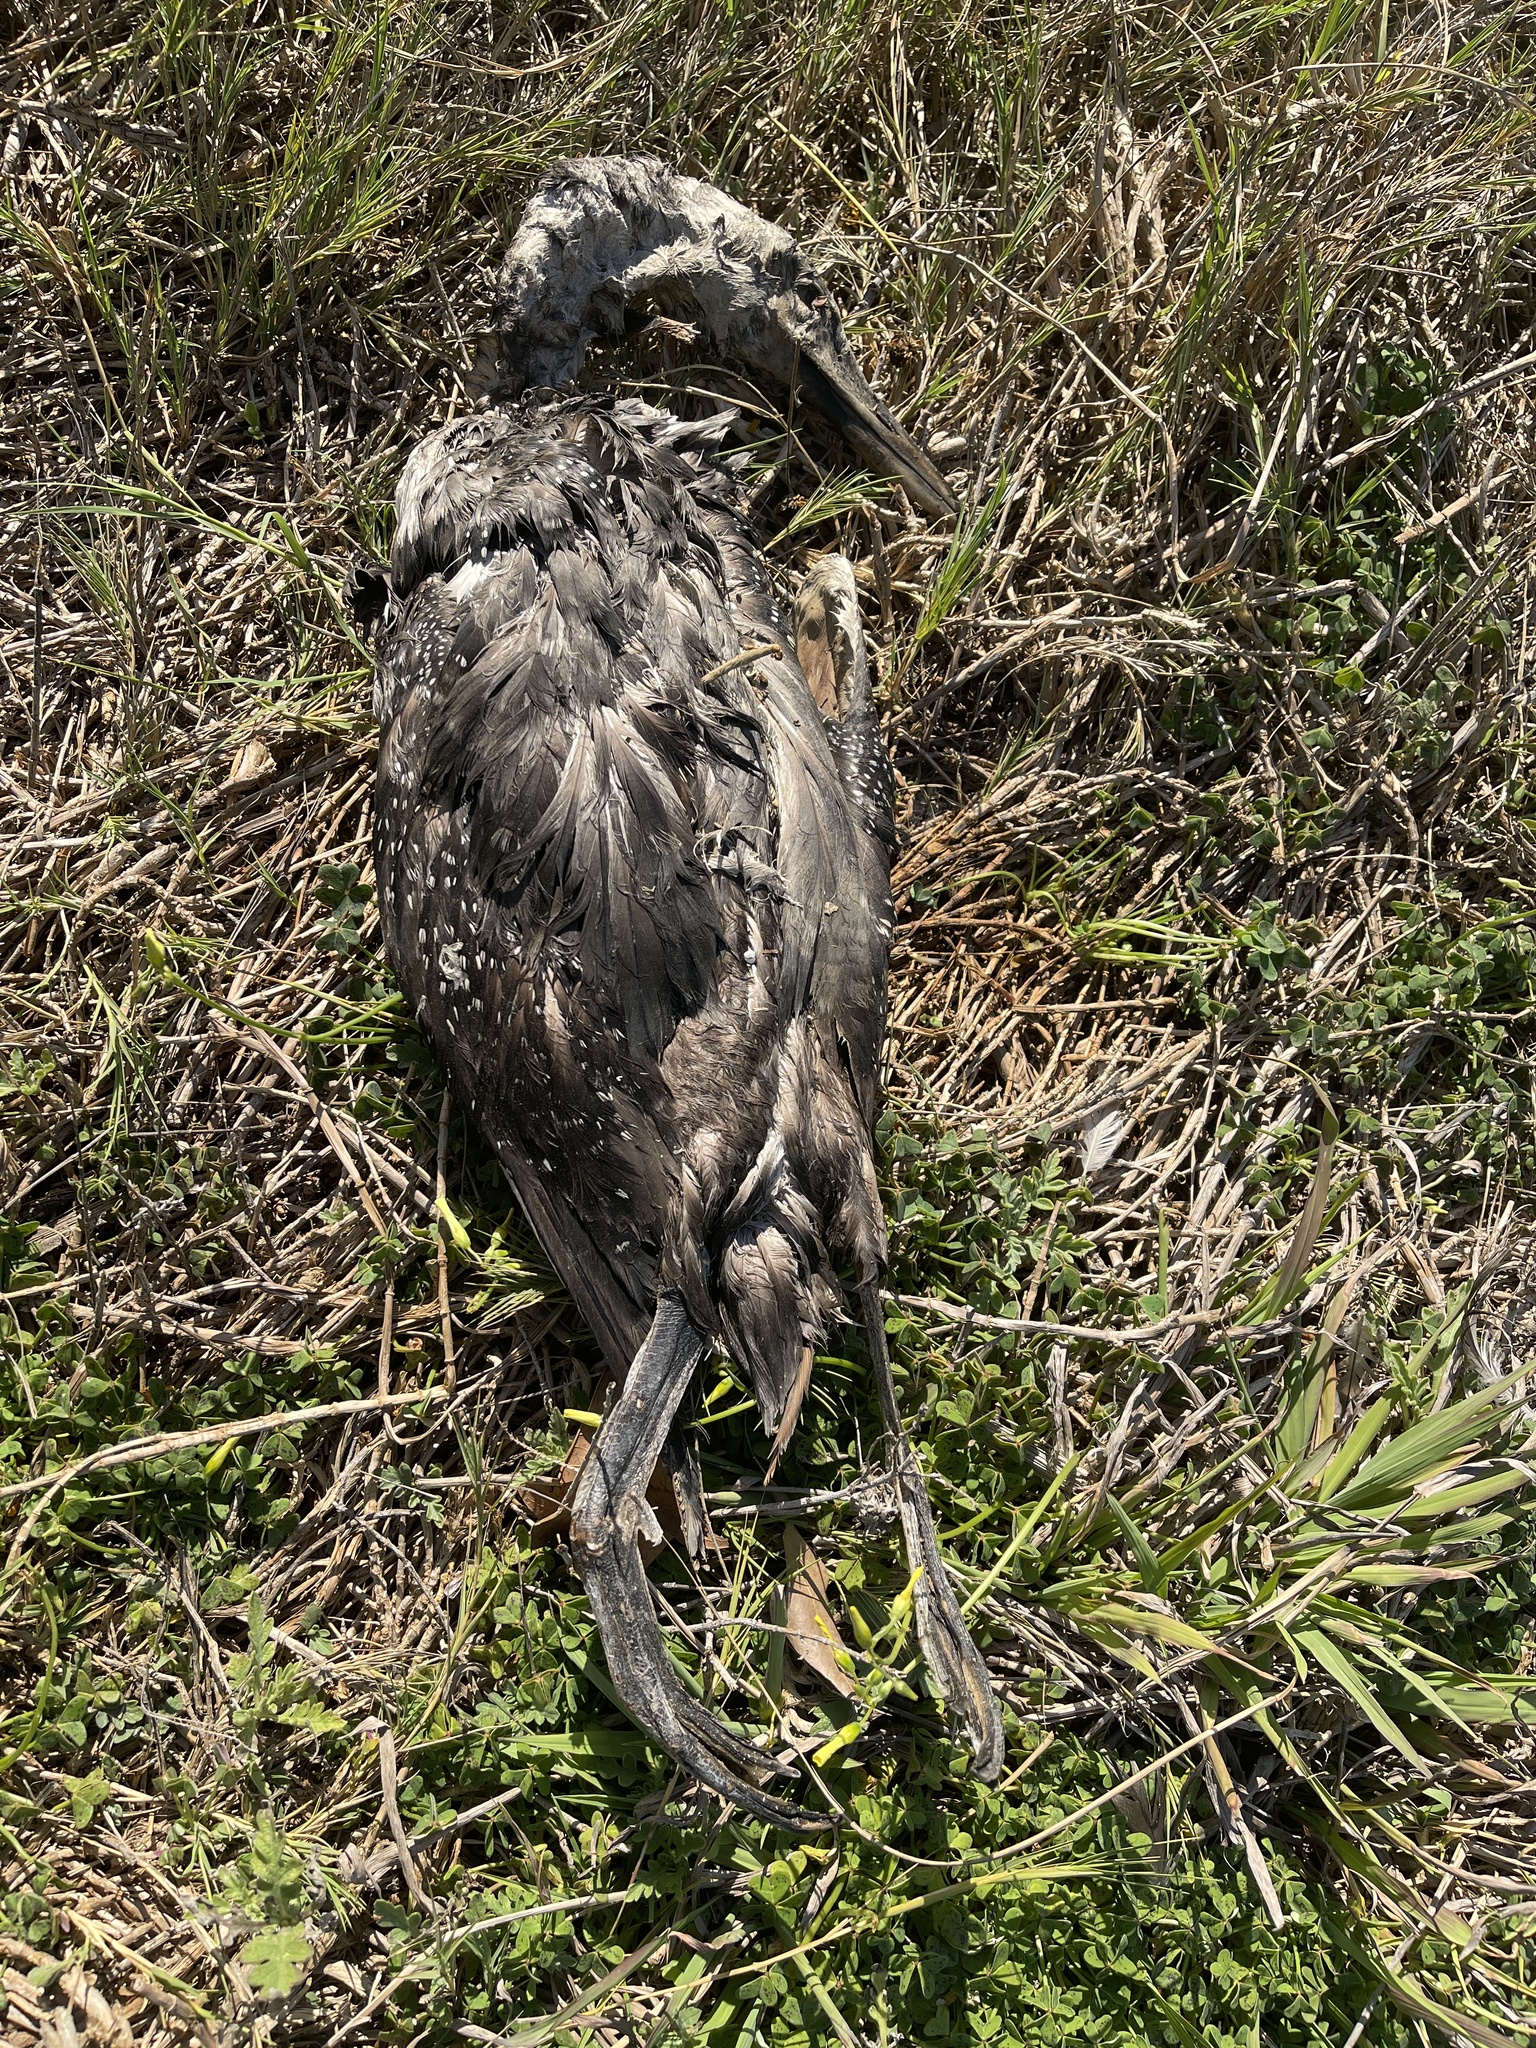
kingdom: Animalia
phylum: Chordata
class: Aves
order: Gaviiformes
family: Gaviidae
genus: Gavia
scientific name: Gavia immer
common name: Common loon
